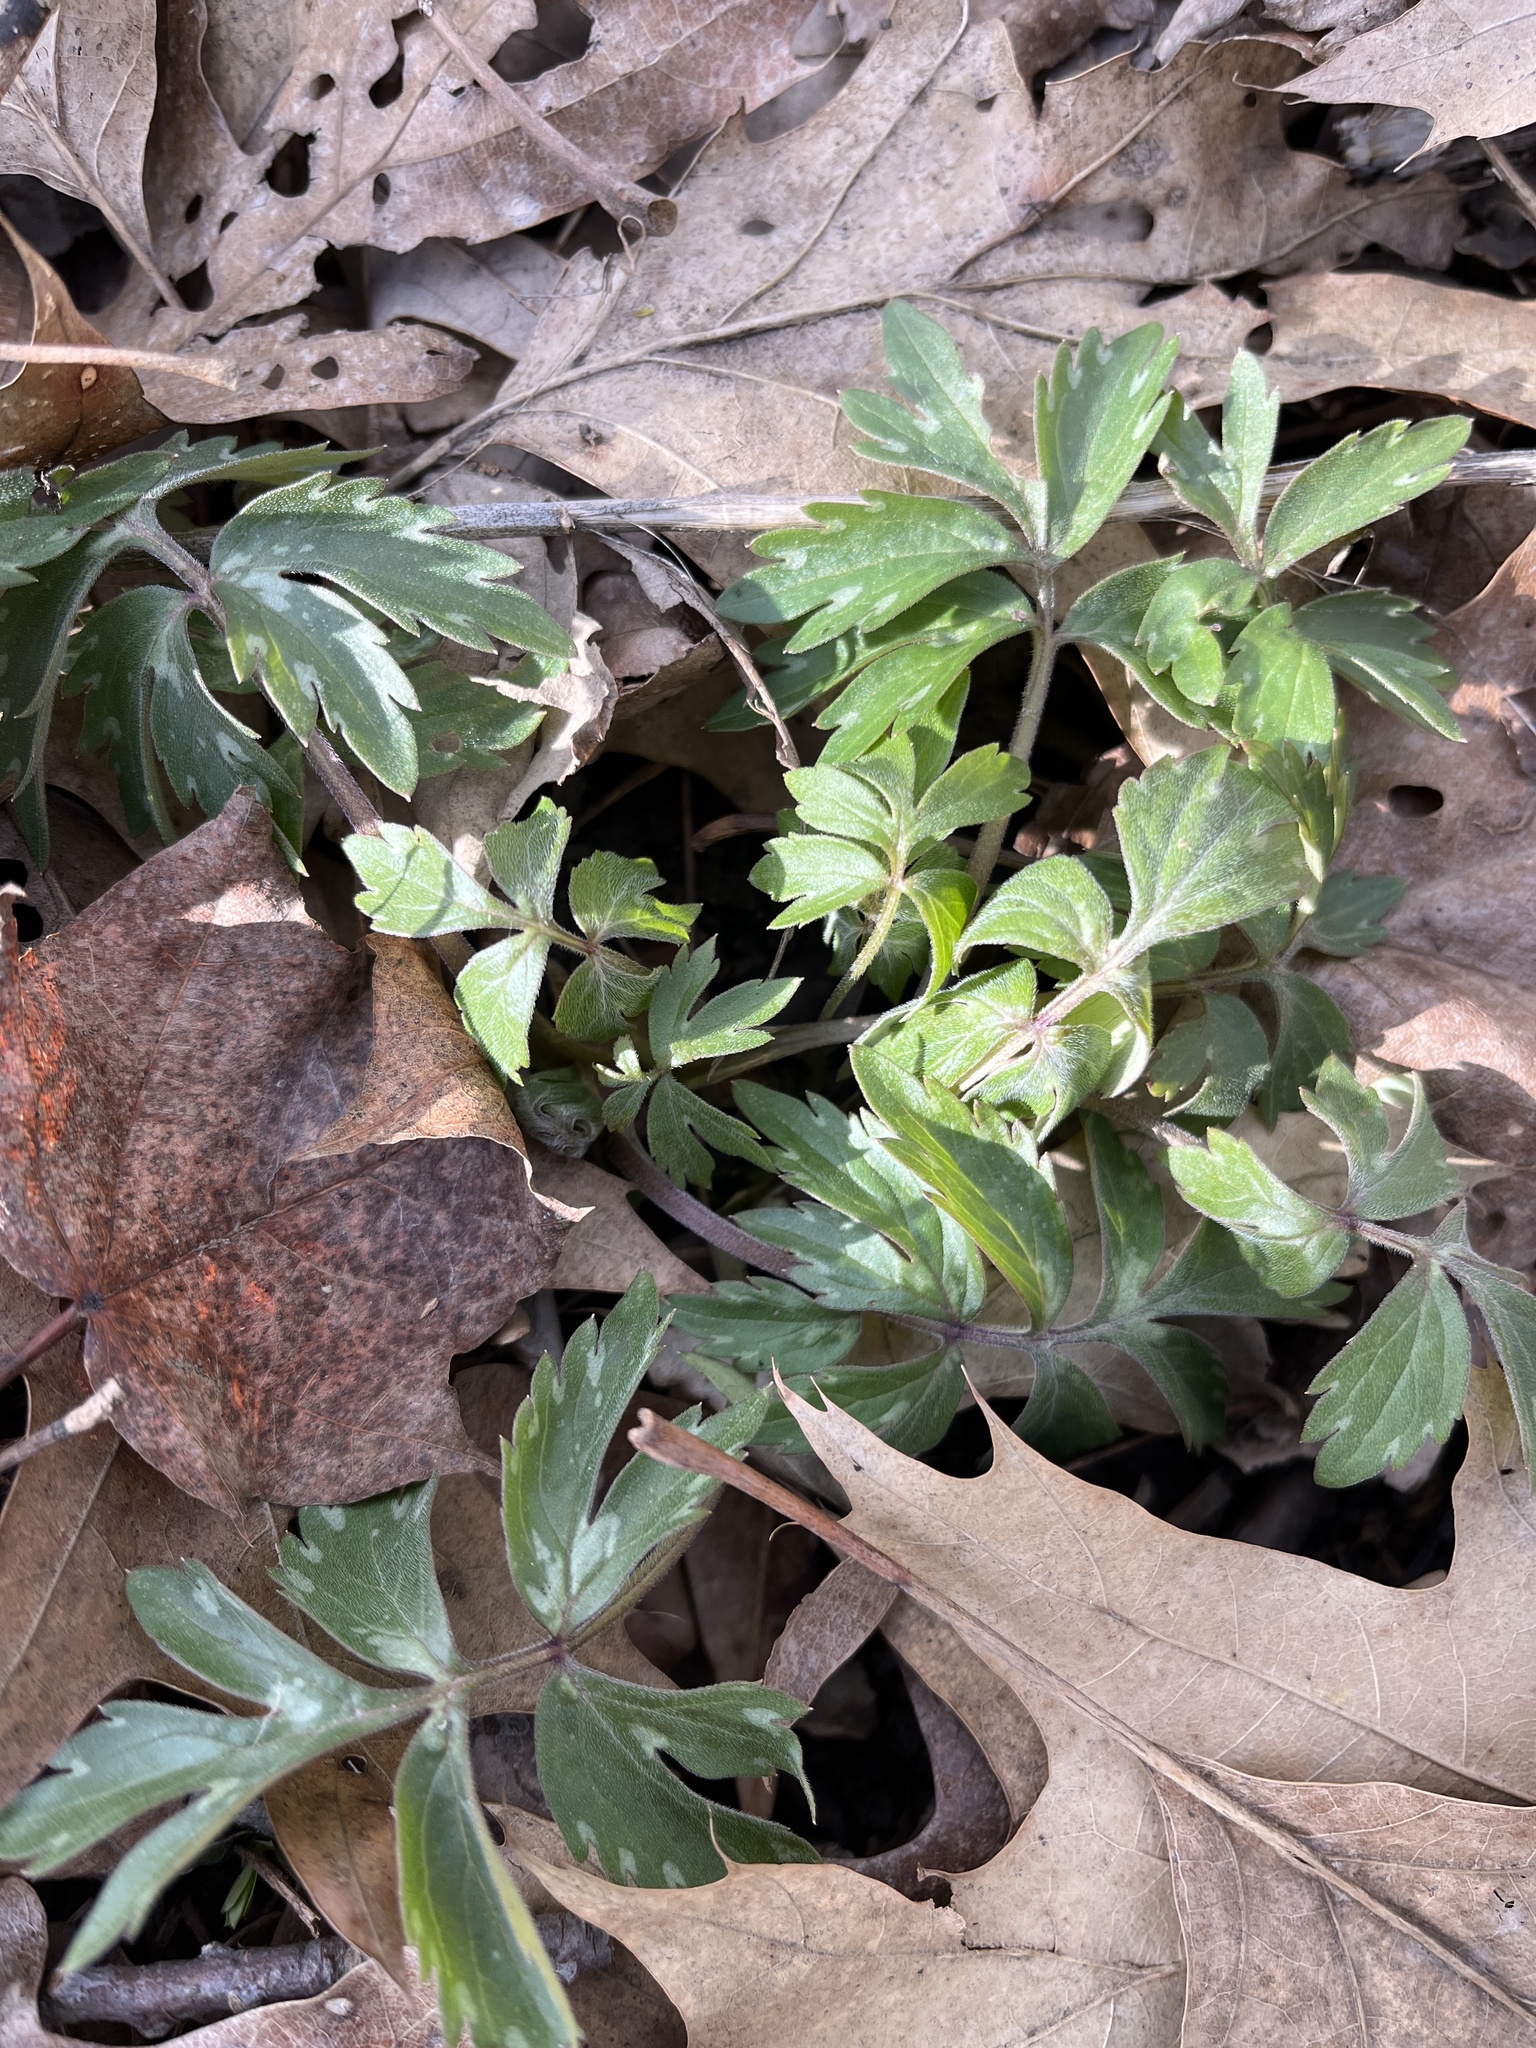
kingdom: Plantae
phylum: Tracheophyta
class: Magnoliopsida
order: Boraginales
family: Hydrophyllaceae
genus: Hydrophyllum
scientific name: Hydrophyllum virginianum
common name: Virginia waterleaf
